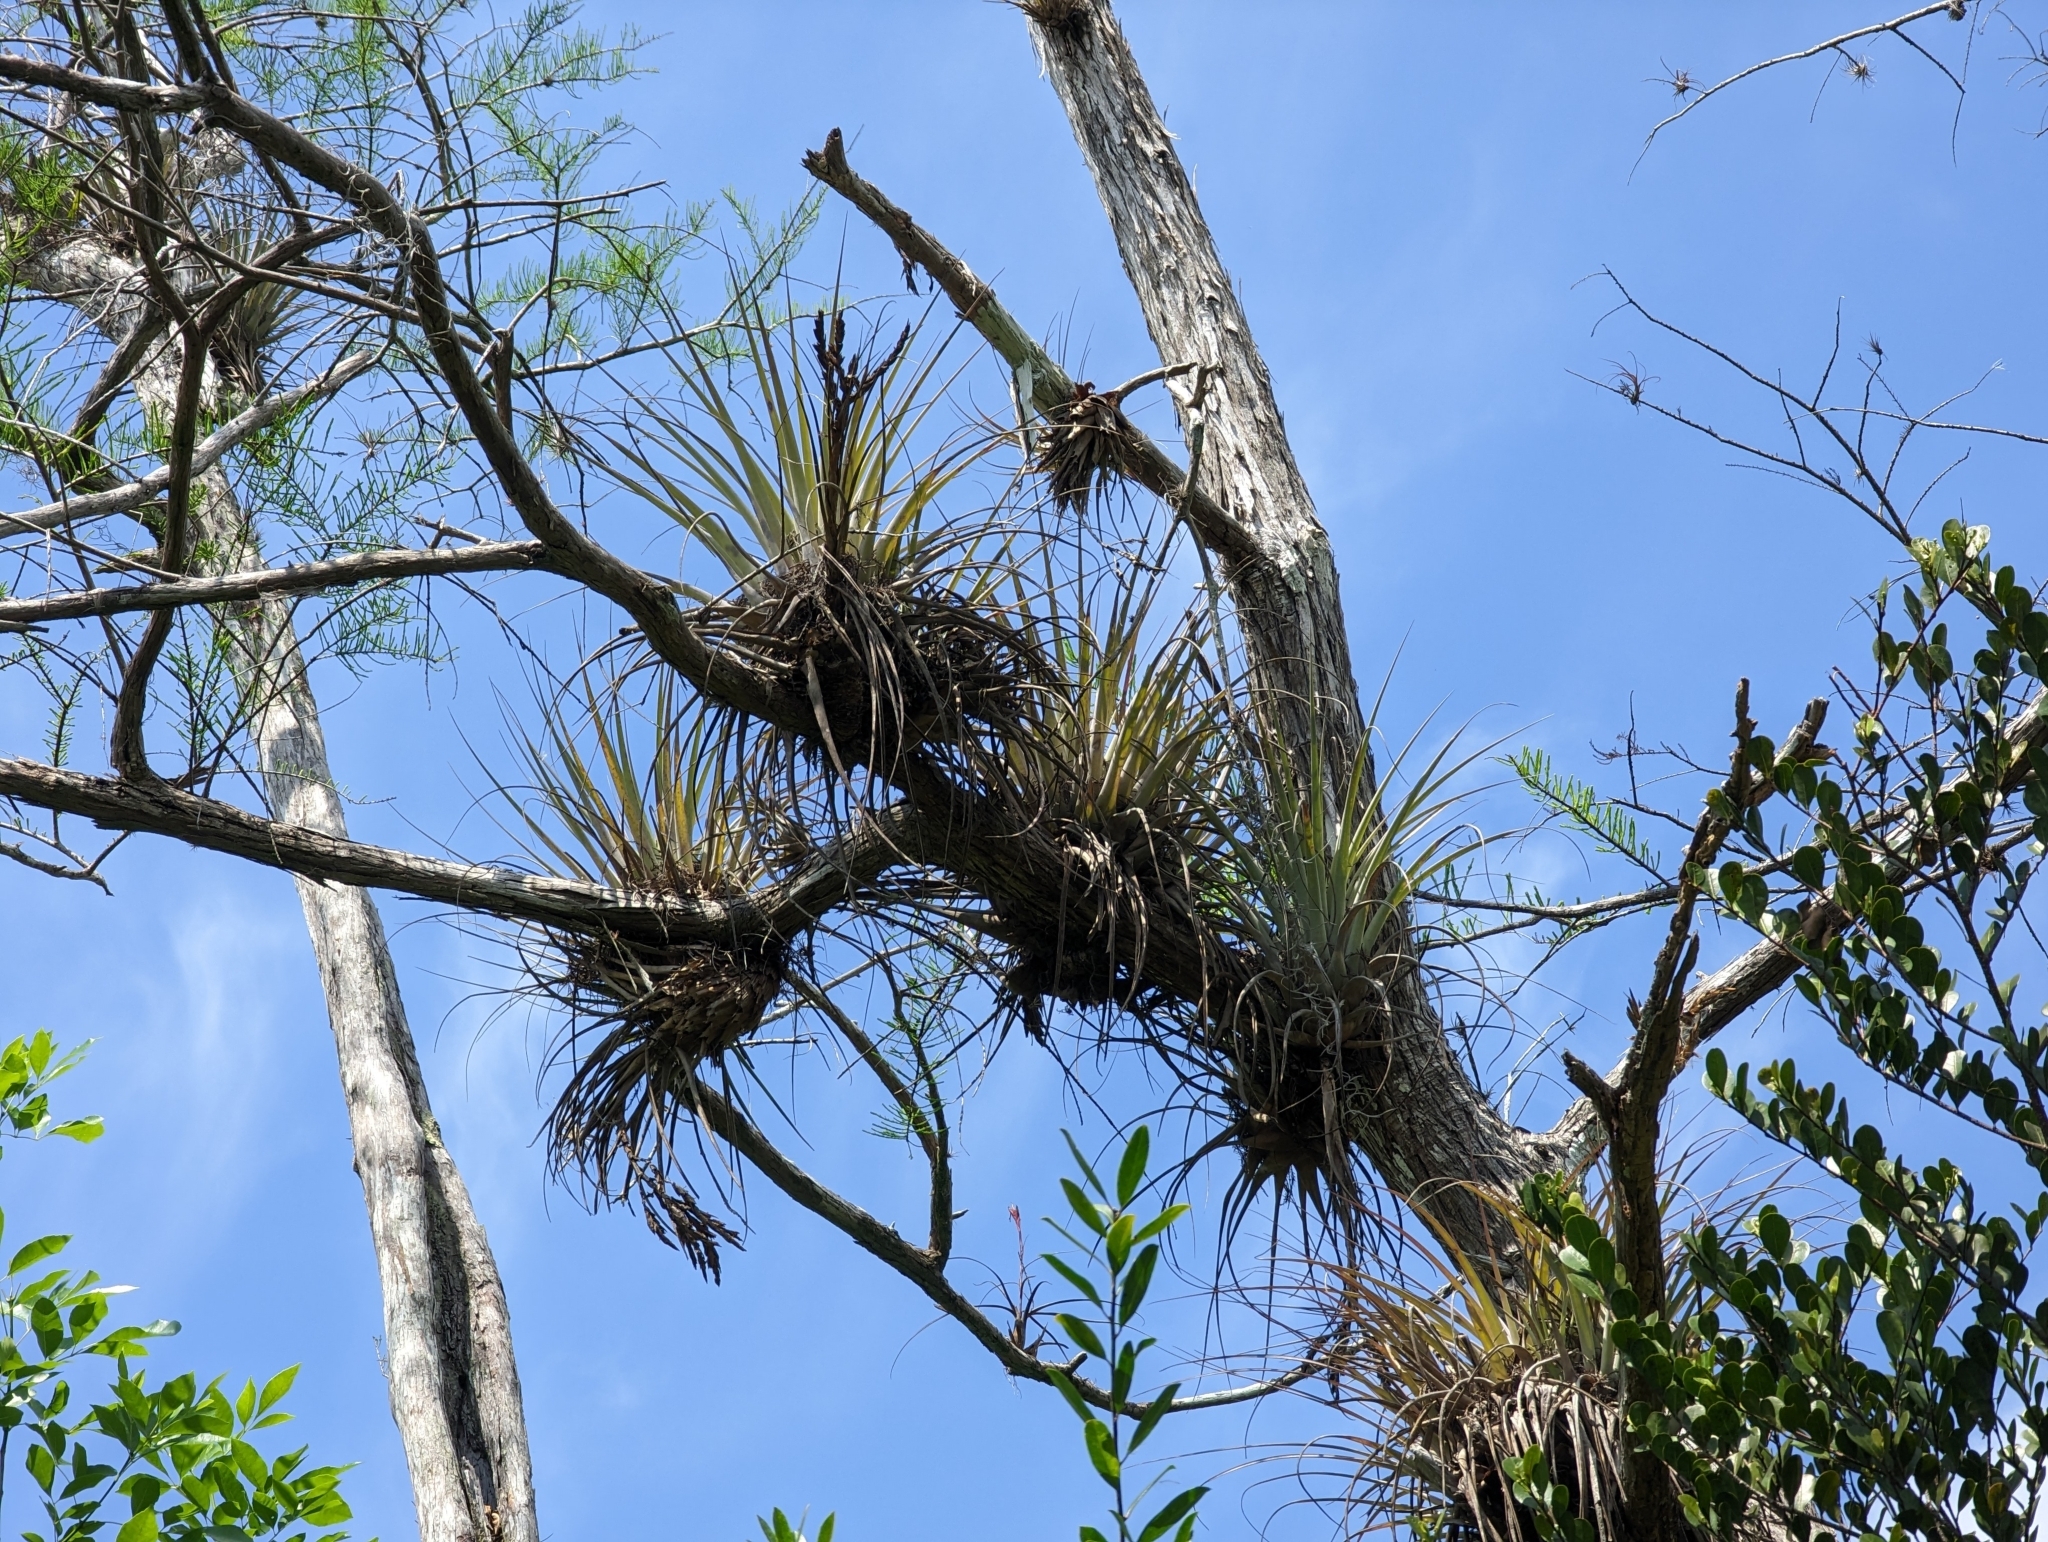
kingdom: Plantae
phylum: Tracheophyta
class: Liliopsida
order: Poales
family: Bromeliaceae
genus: Tillandsia
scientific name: Tillandsia fasciculata
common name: Giant airplant
